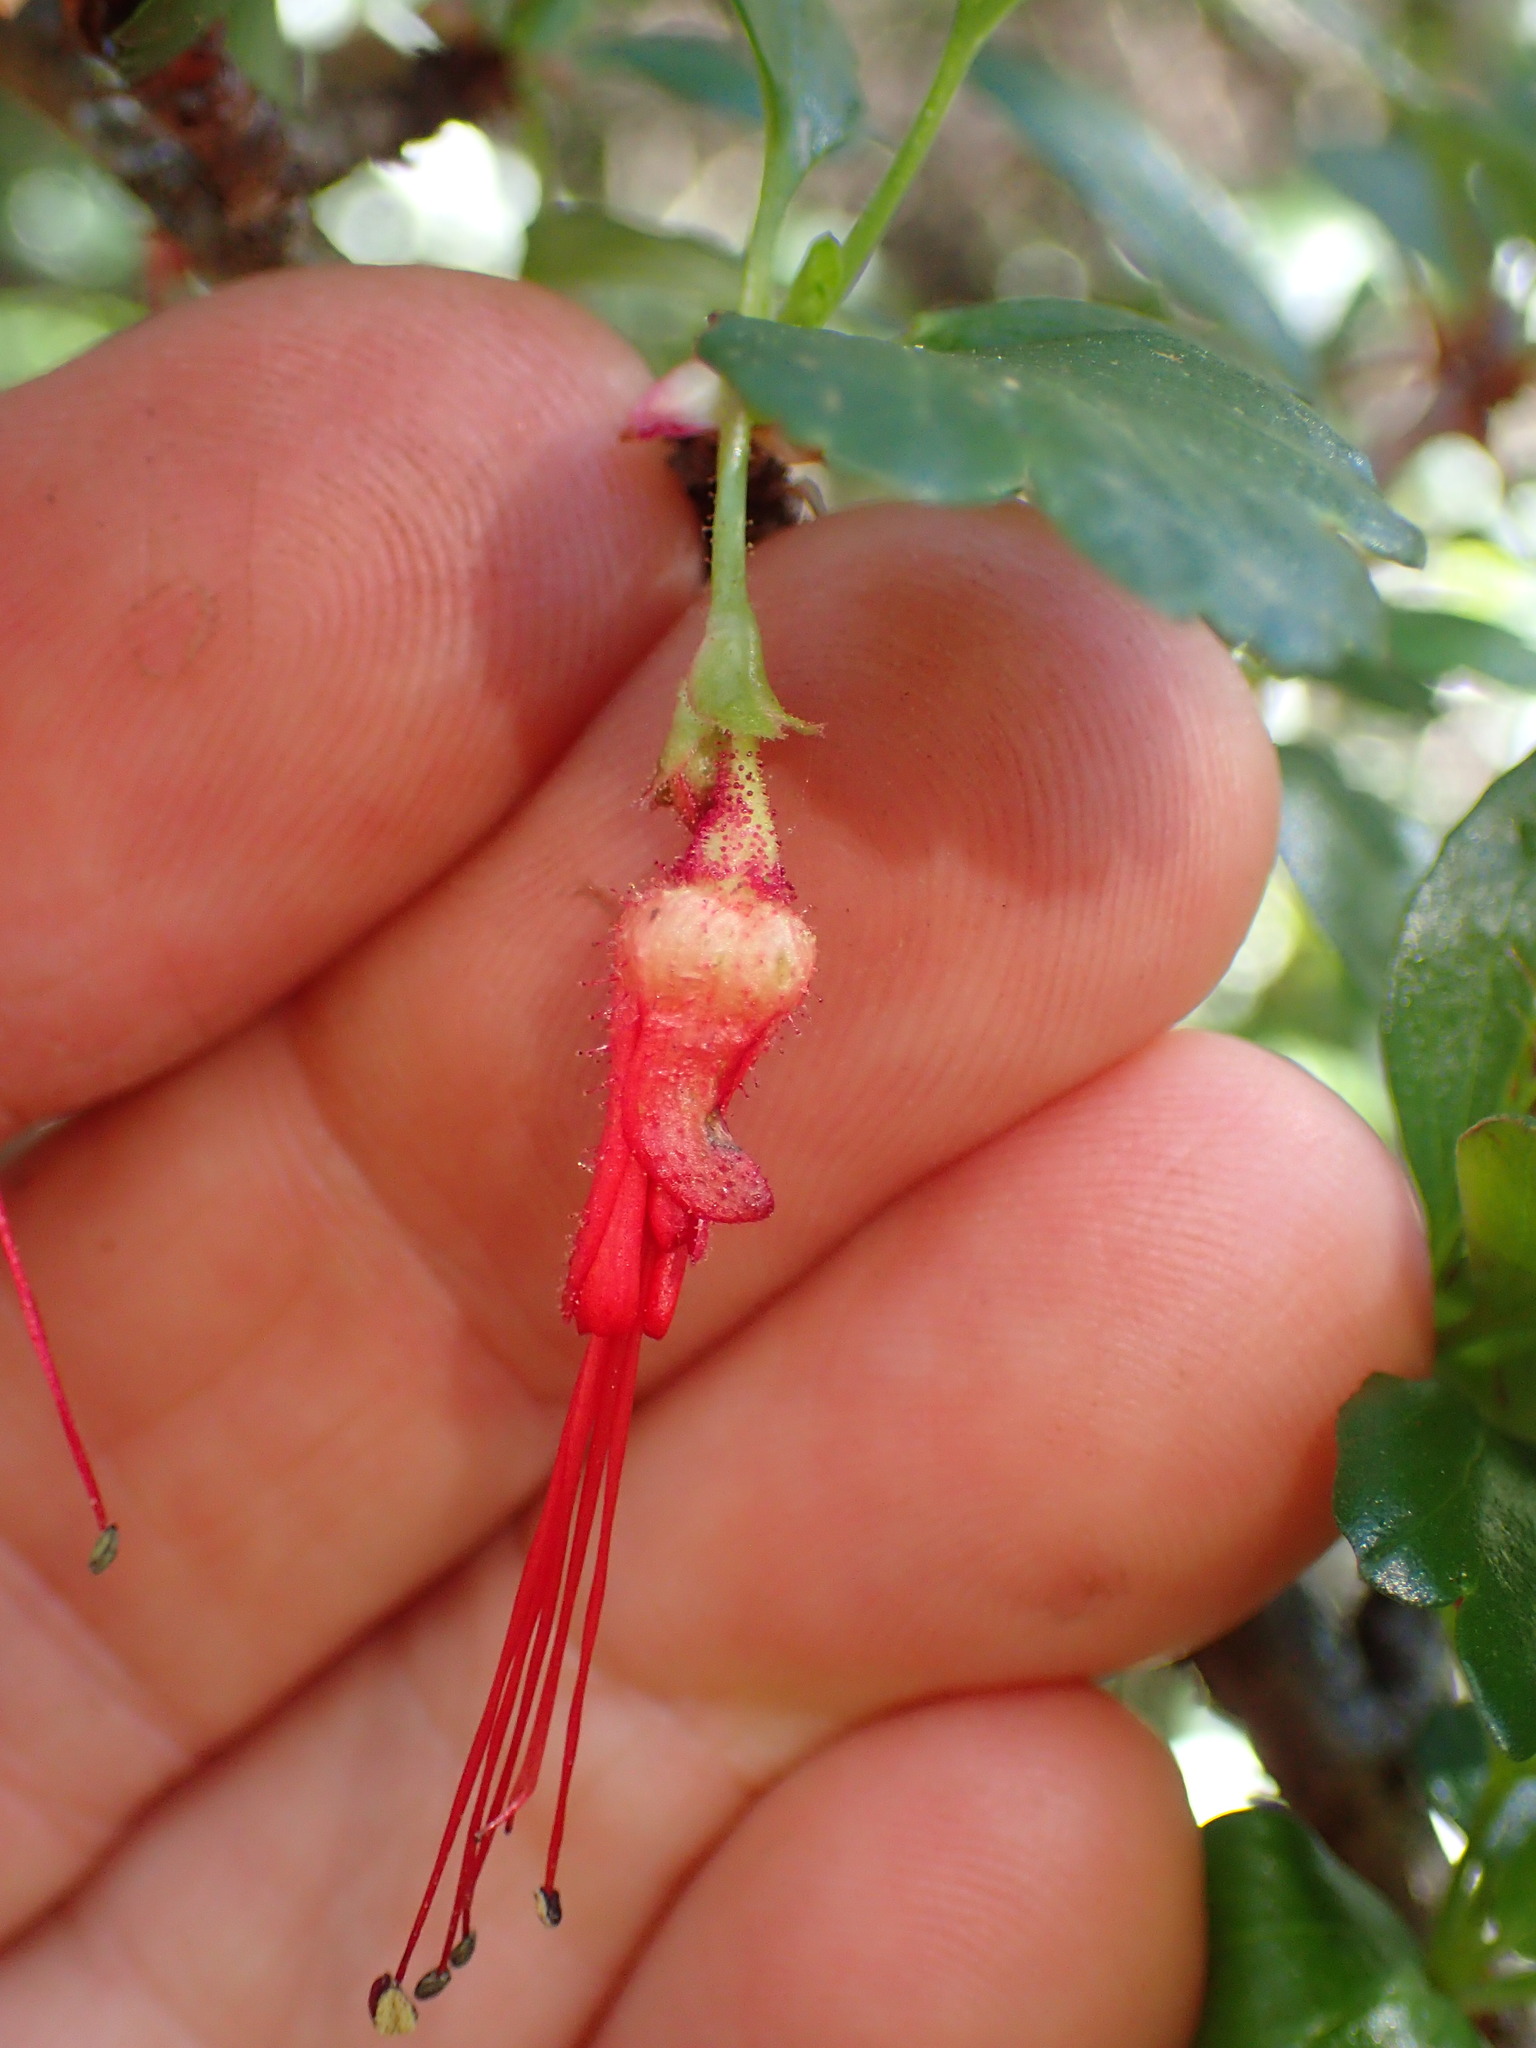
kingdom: Plantae
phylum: Tracheophyta
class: Magnoliopsida
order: Saxifragales
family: Grossulariaceae
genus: Ribes
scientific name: Ribes speciosum
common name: Fuchsia-flower gooseberry
